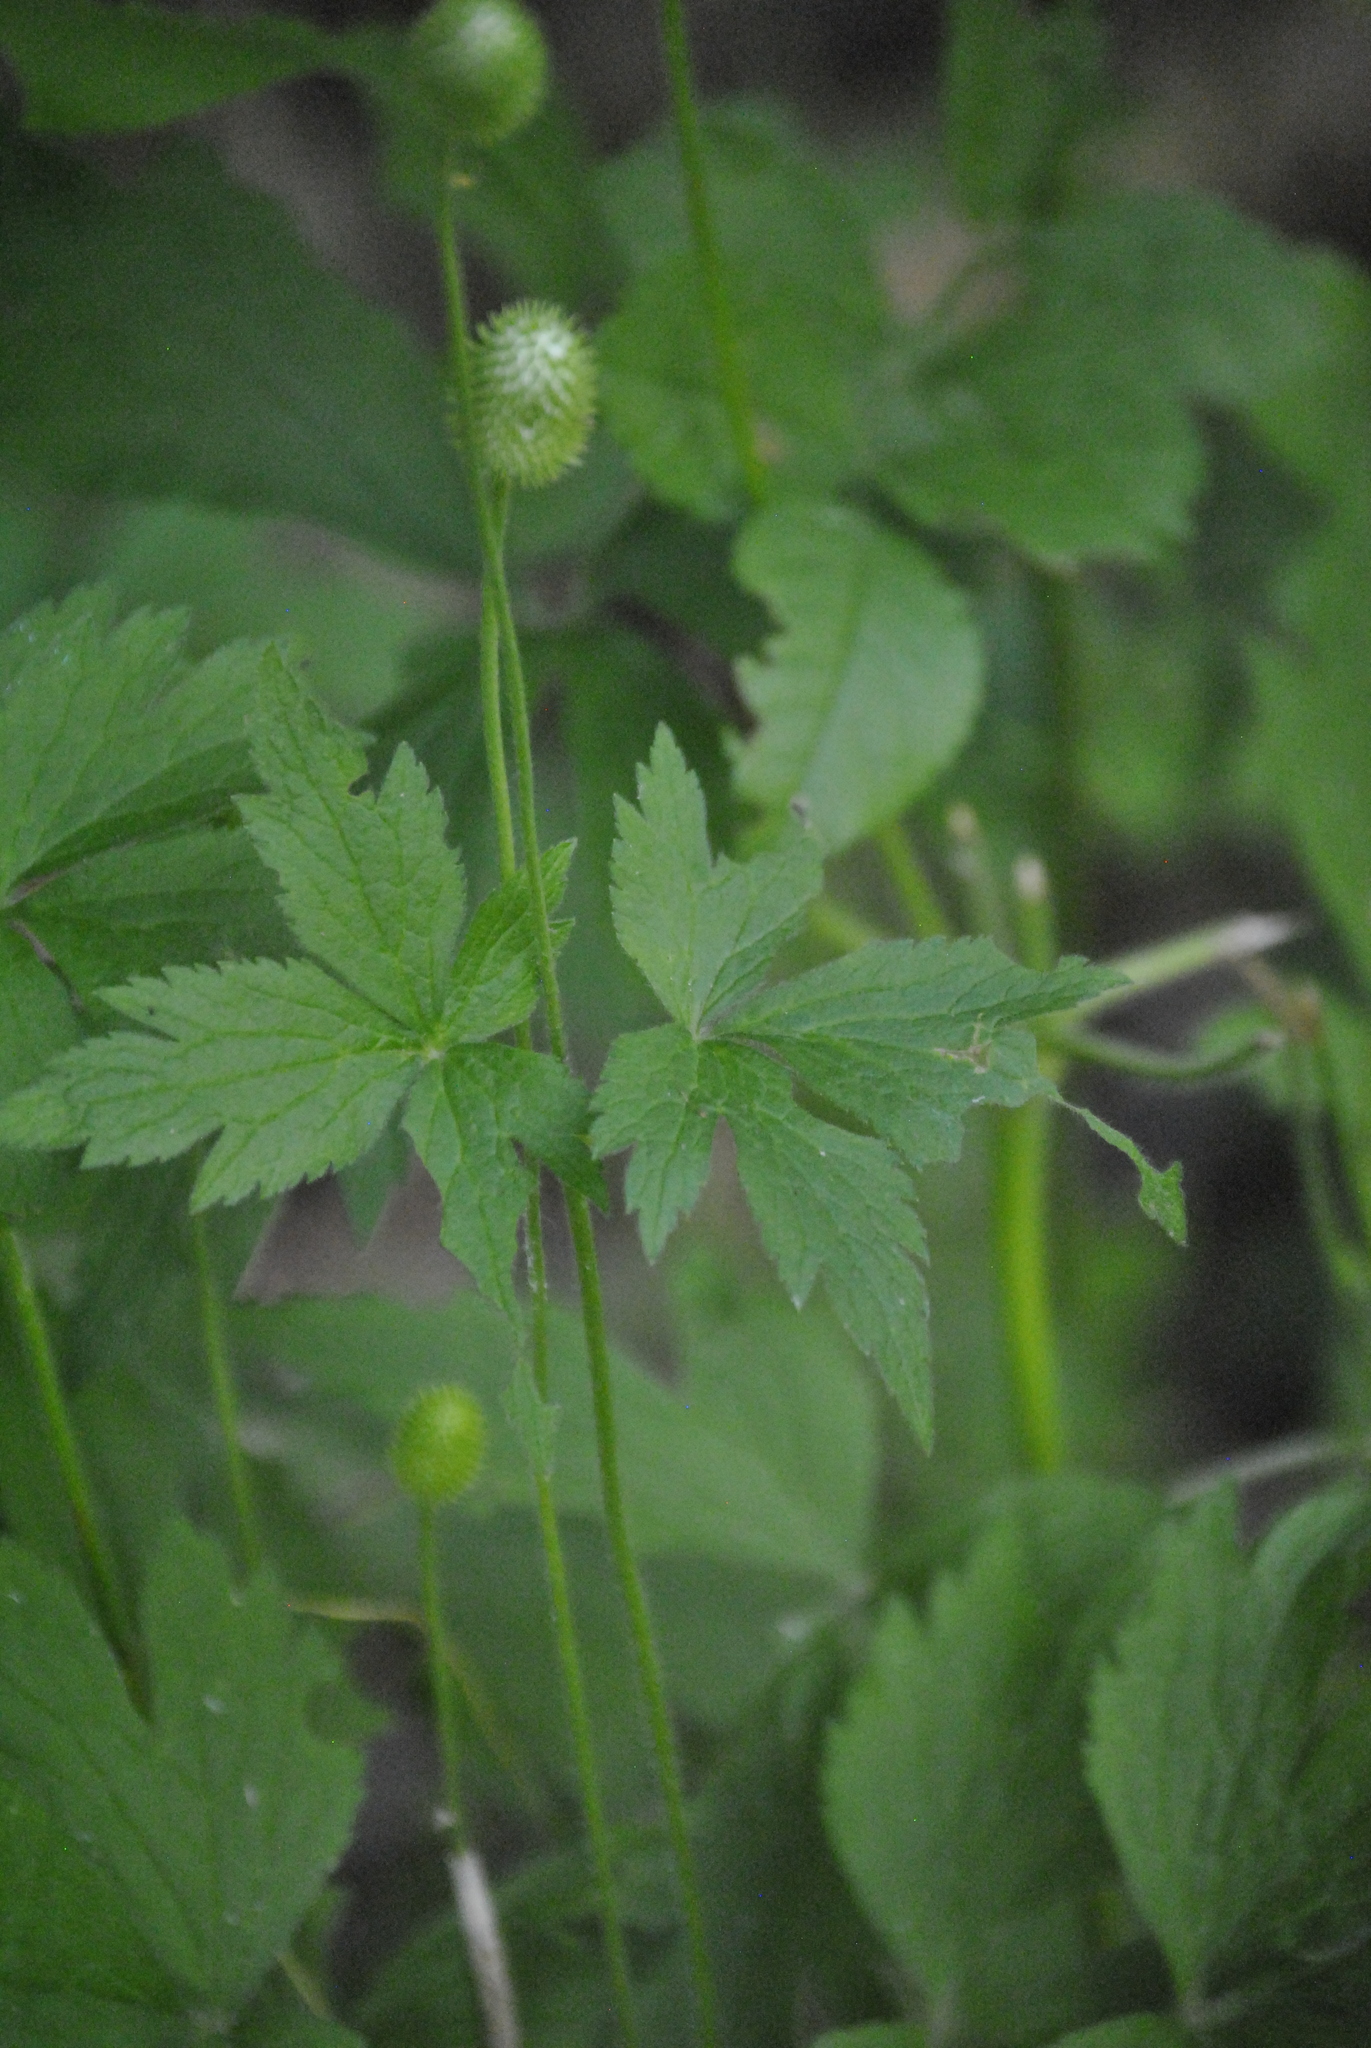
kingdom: Plantae
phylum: Tracheophyta
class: Magnoliopsida
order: Ranunculales
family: Ranunculaceae
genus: Anemone
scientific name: Anemone virginiana
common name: Tall anemone
